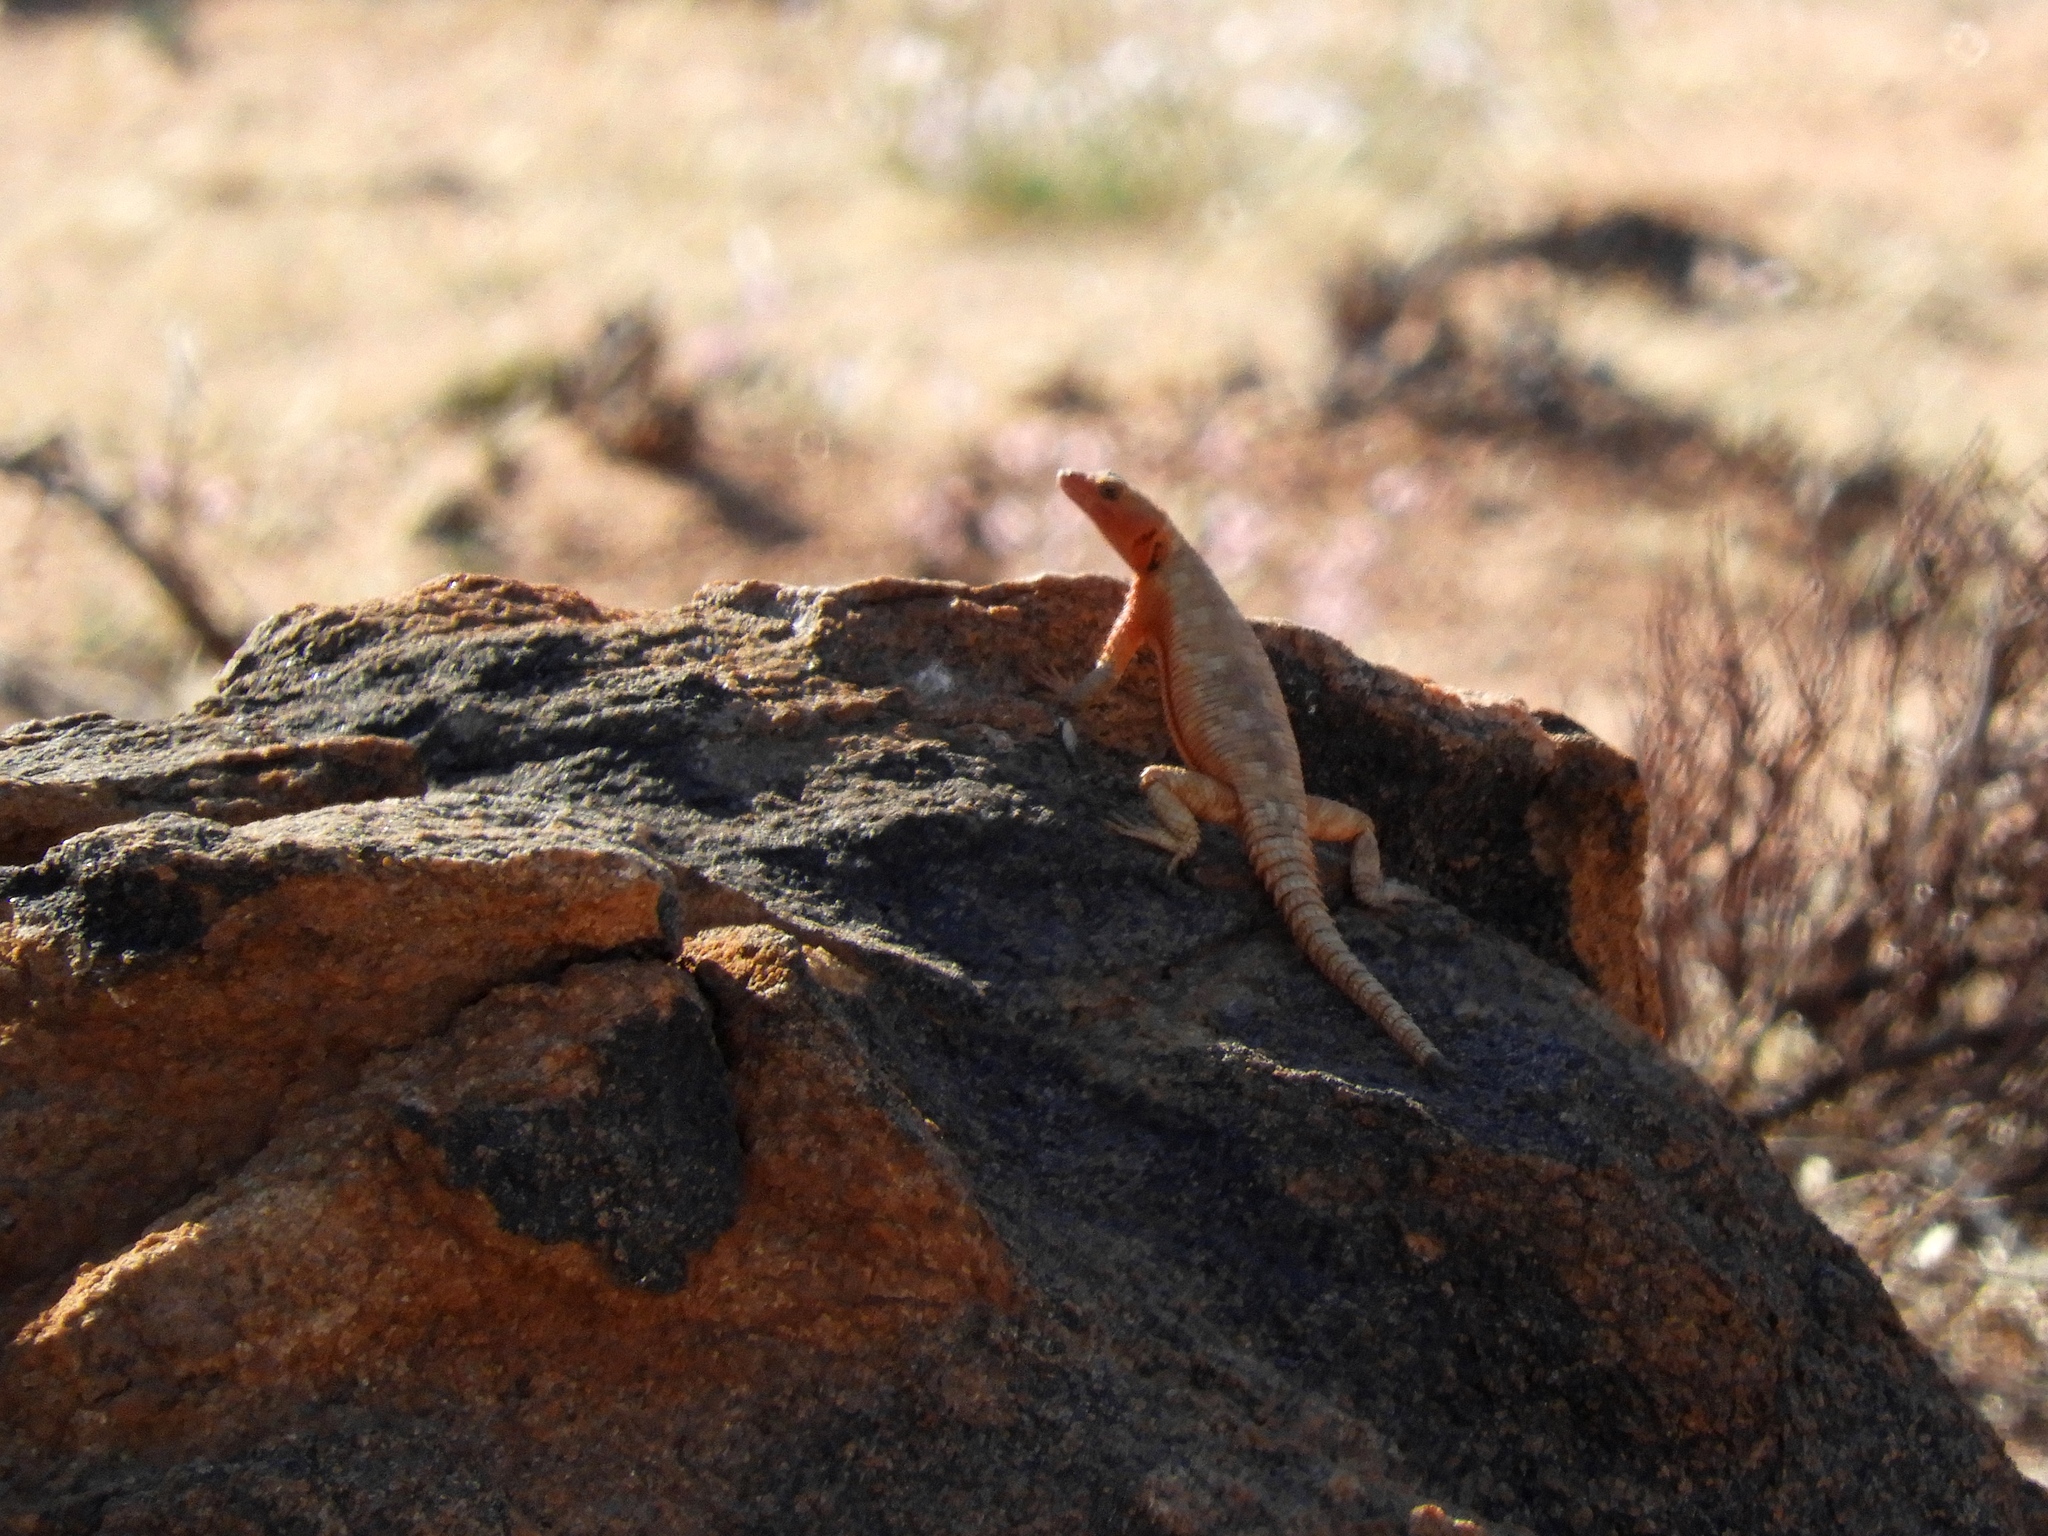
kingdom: Animalia
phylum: Chordata
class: Squamata
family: Cordylidae
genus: Karusasaurus
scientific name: Karusasaurus polyzonus
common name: Karoo girdled lizard
